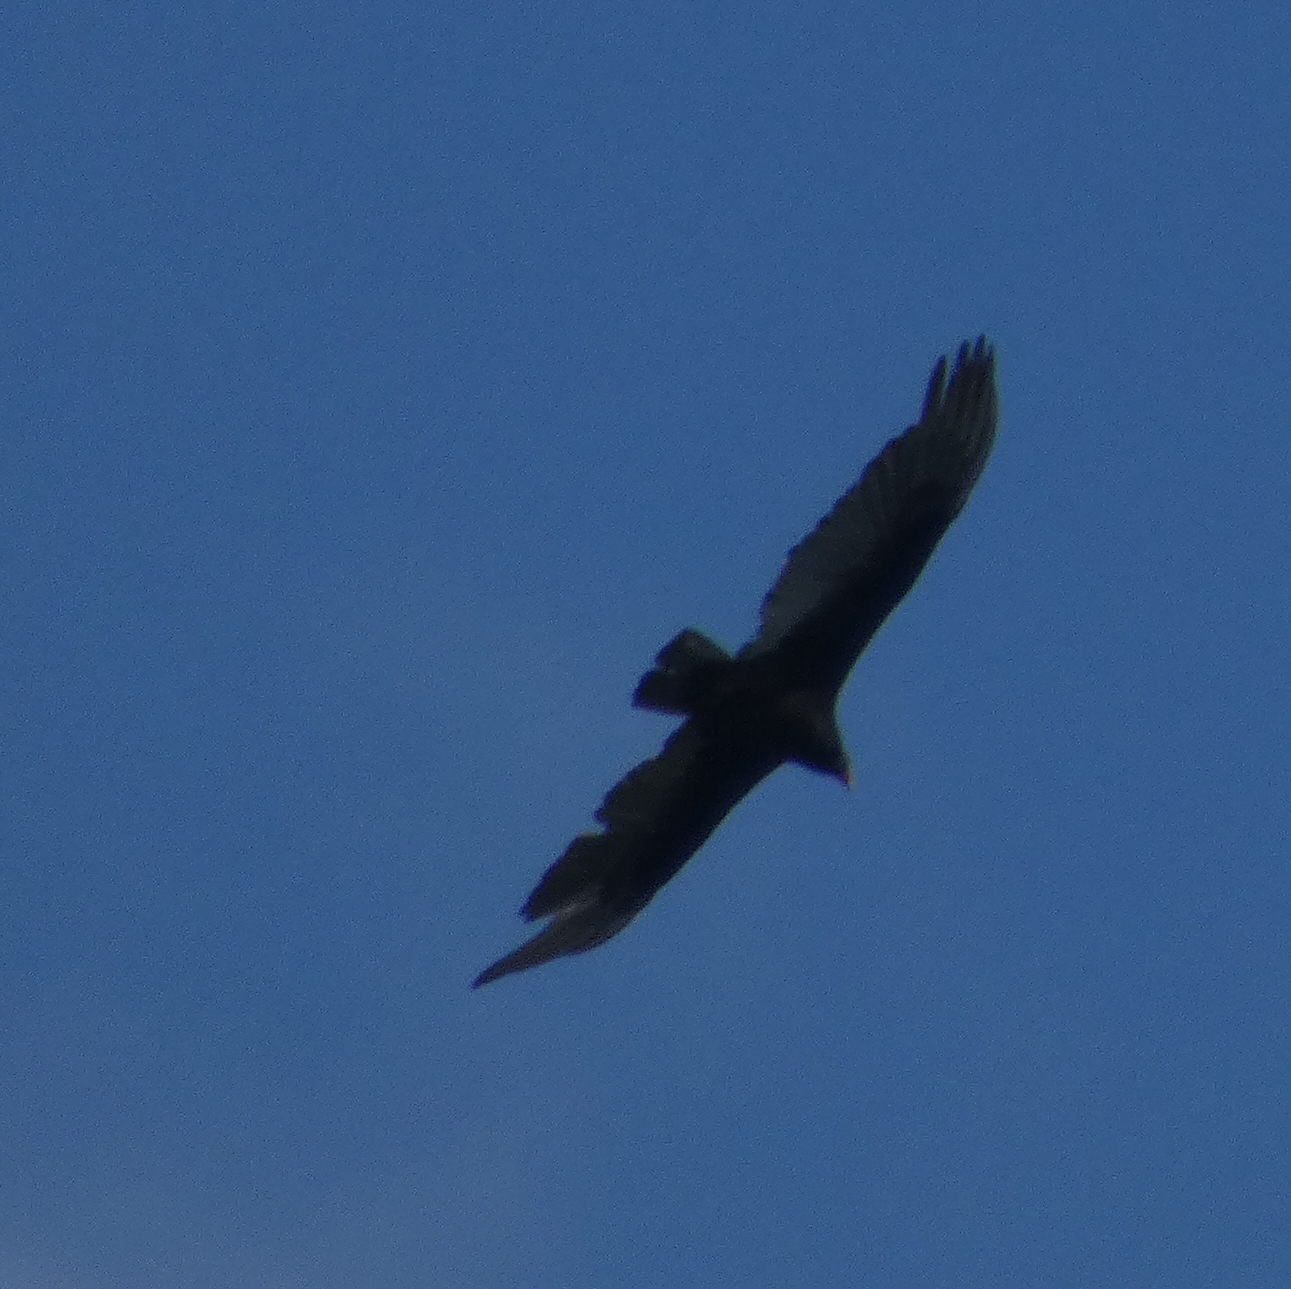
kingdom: Animalia
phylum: Chordata
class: Aves
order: Accipitriformes
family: Cathartidae
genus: Cathartes
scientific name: Cathartes aura
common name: Turkey vulture
